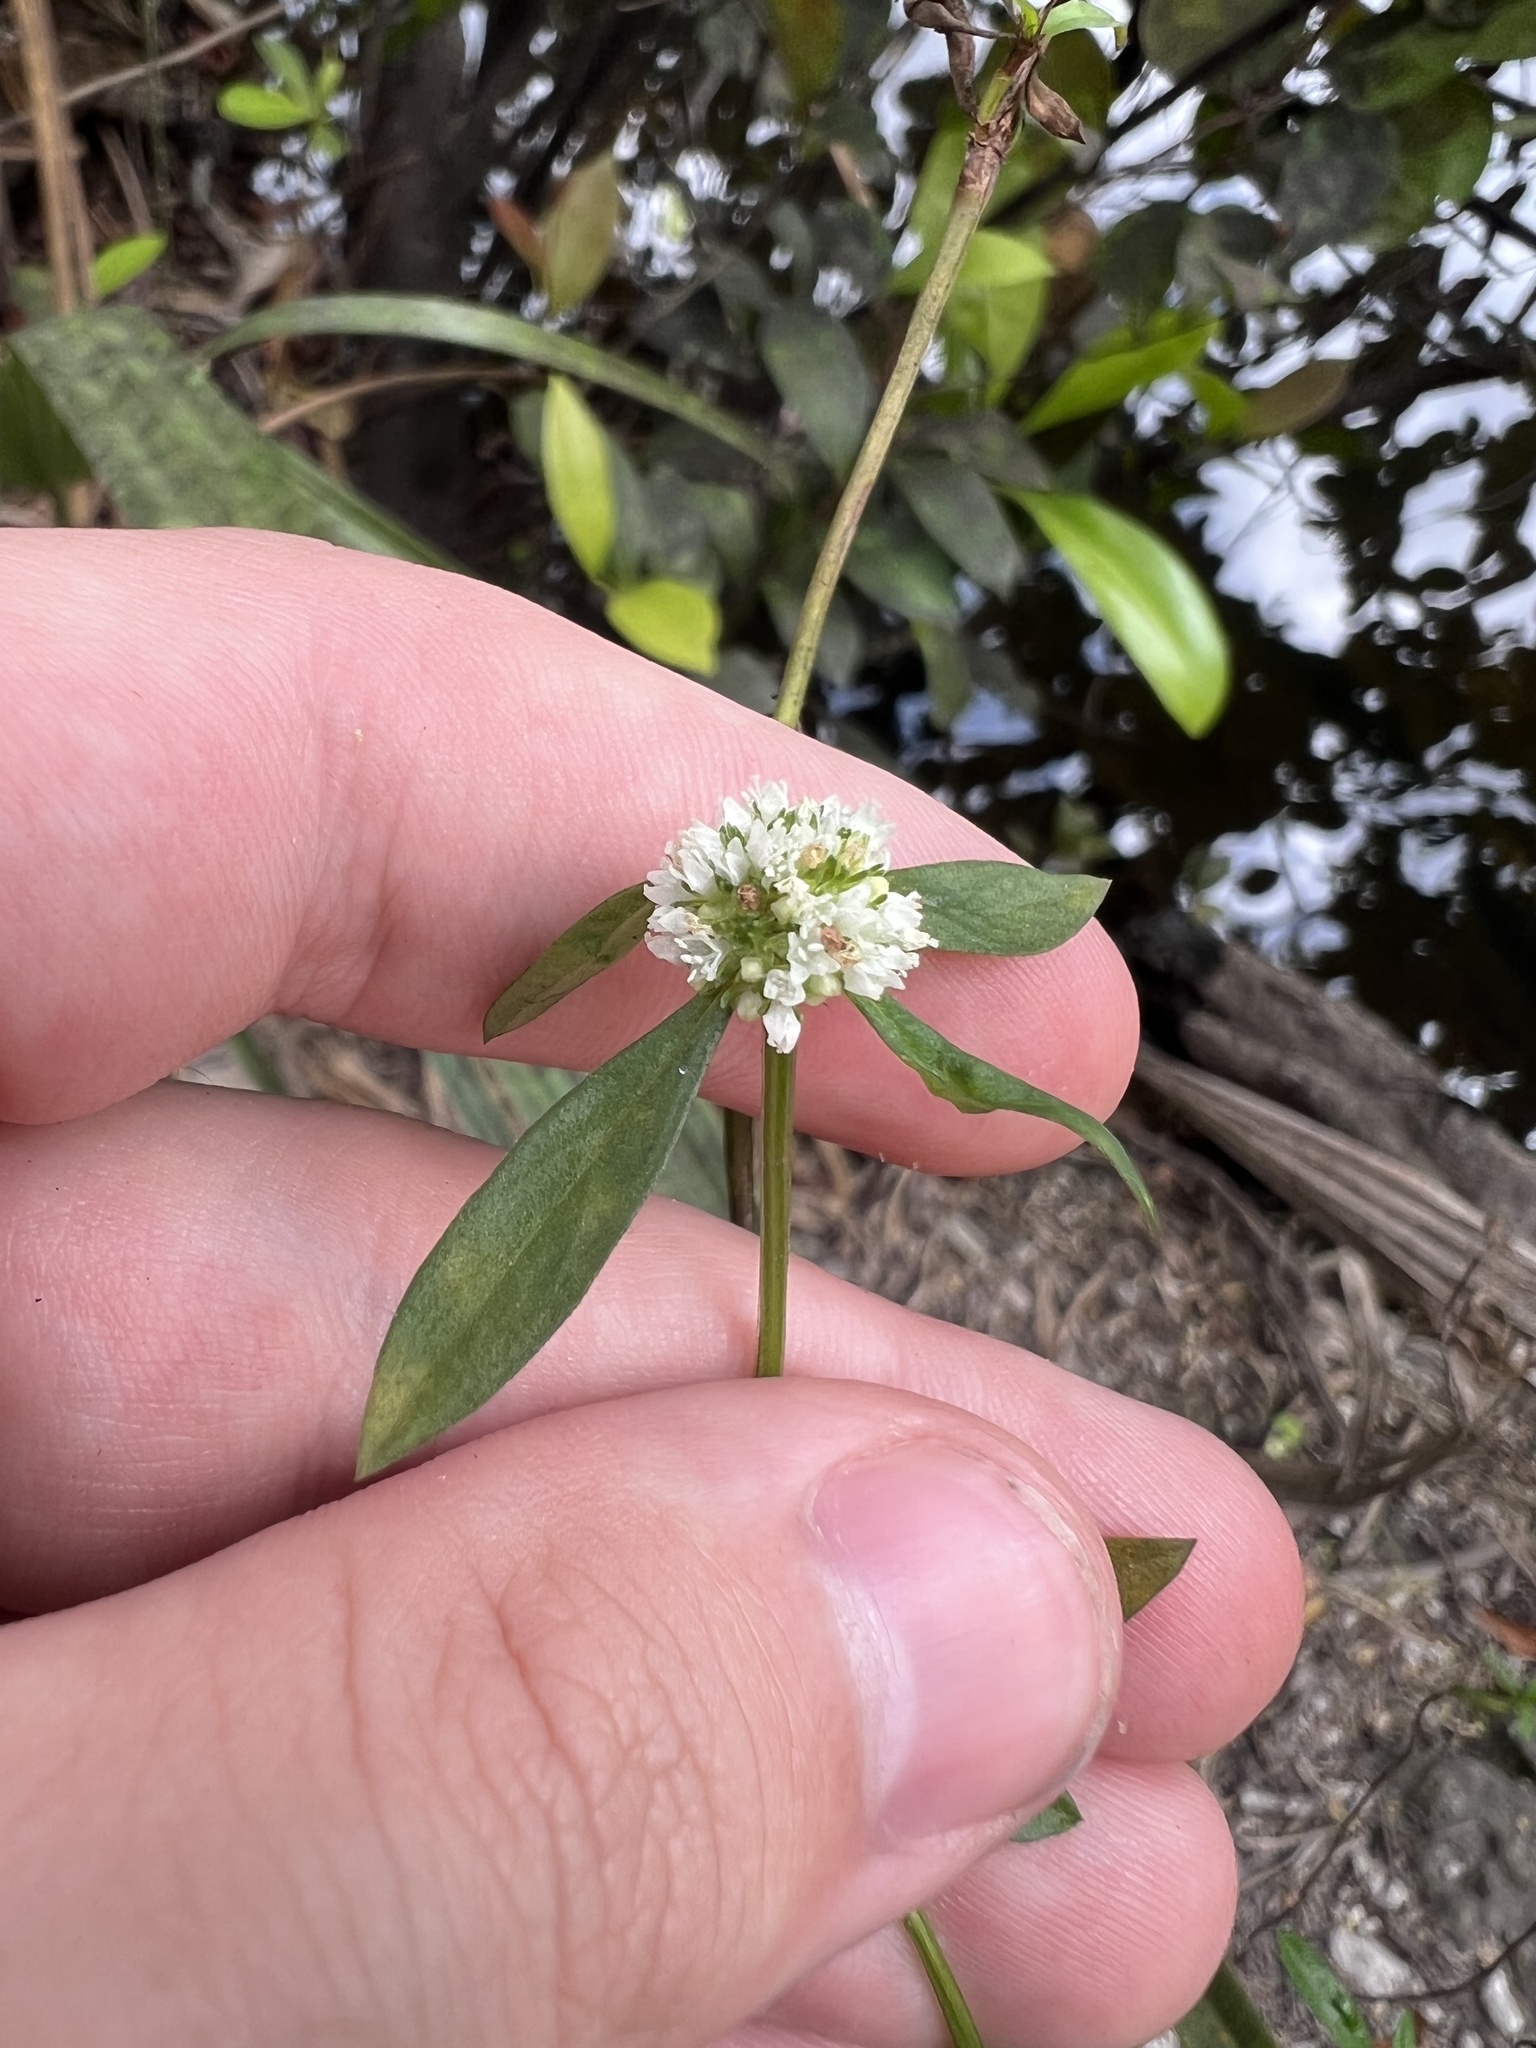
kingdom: Plantae
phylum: Tracheophyta
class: Magnoliopsida
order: Gentianales
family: Rubiaceae
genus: Spermacoce
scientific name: Spermacoce verticillata
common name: Shrubby false buttonweed
